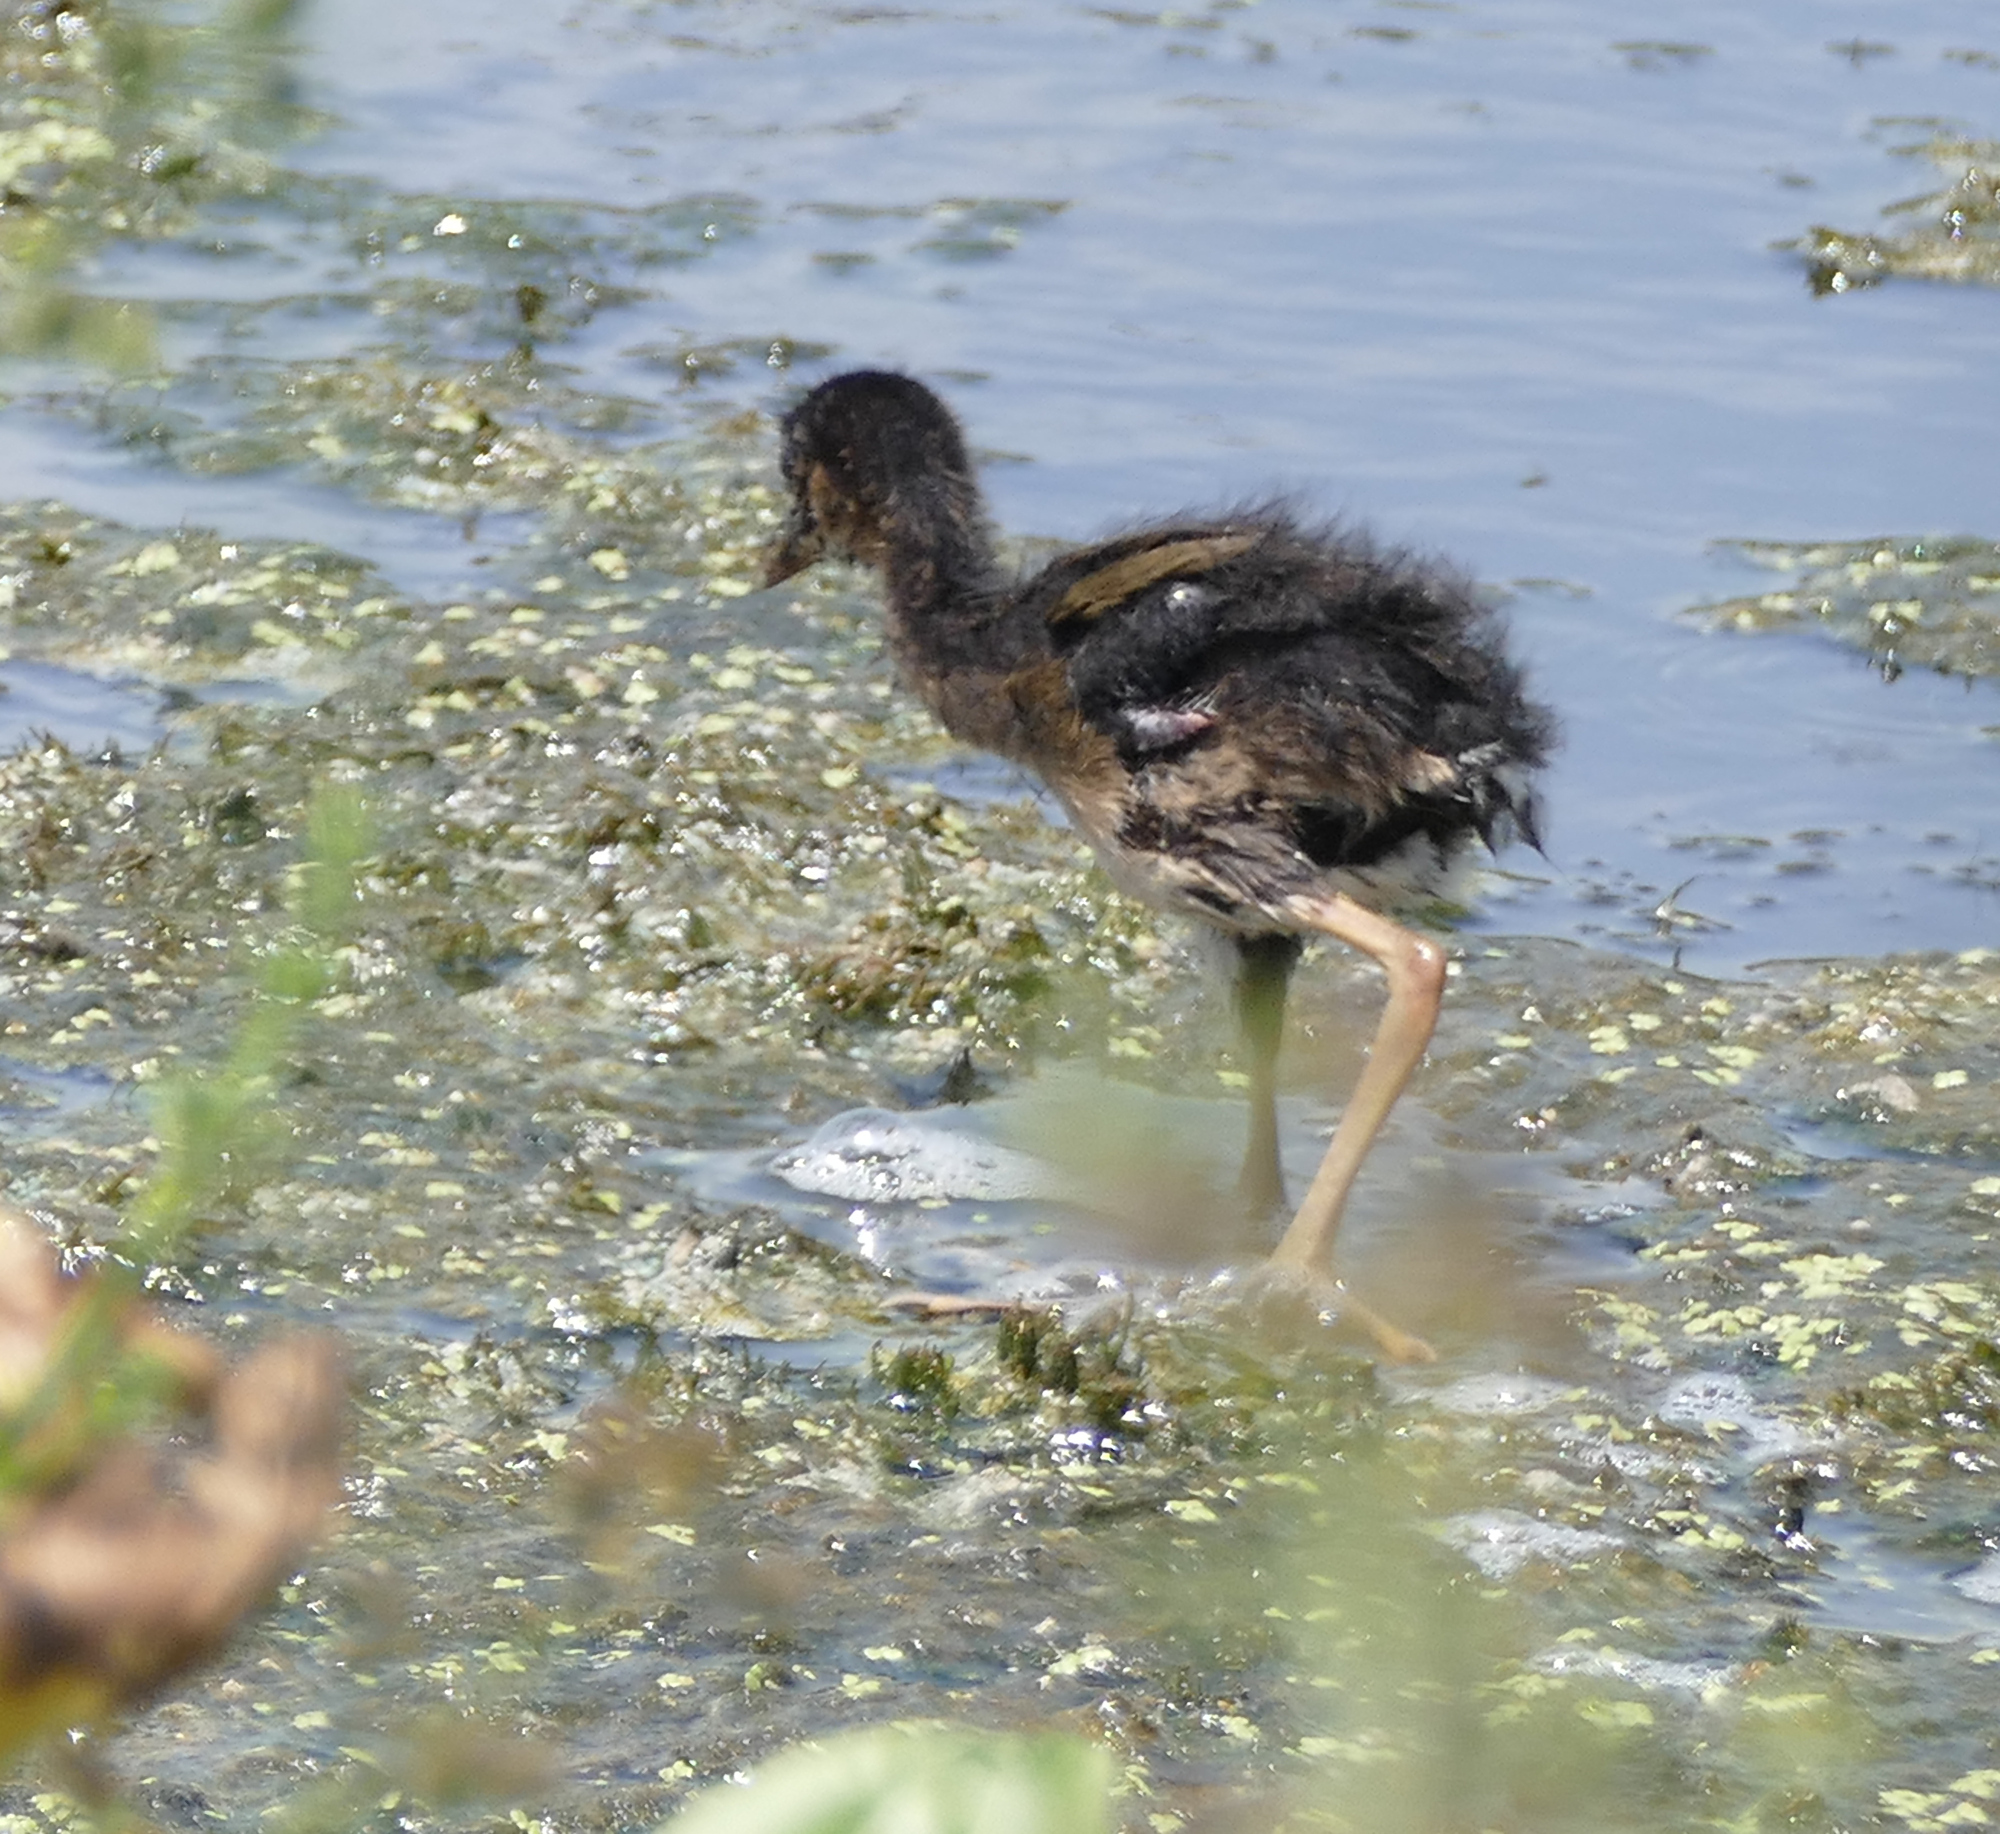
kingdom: Animalia
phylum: Chordata
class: Aves
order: Gruiformes
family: Rallidae
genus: Porphyrio
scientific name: Porphyrio martinica
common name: Purple gallinule
